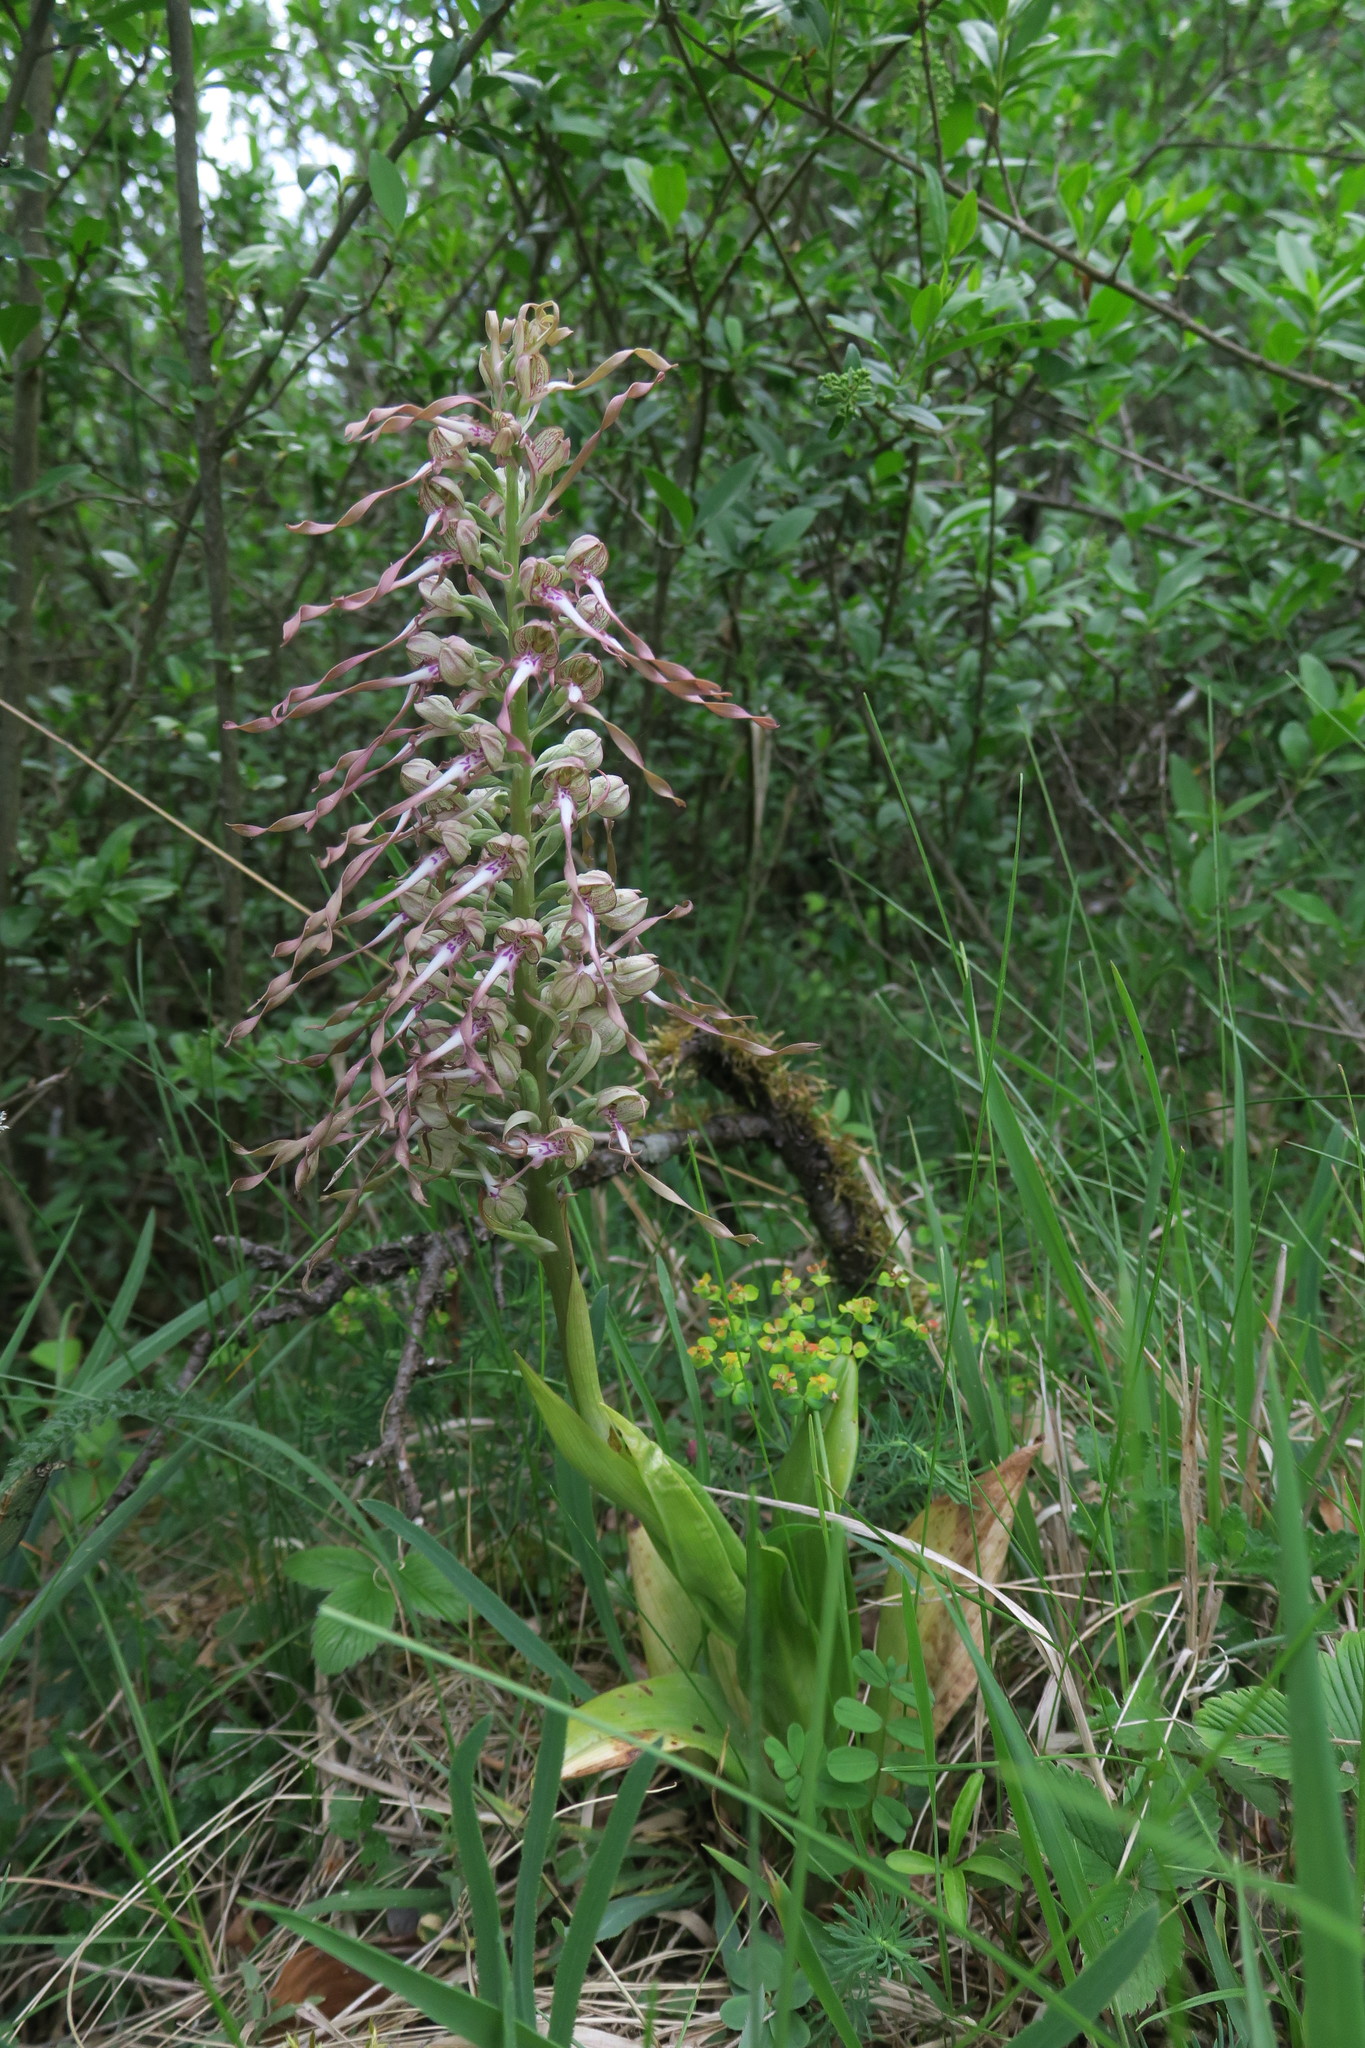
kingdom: Plantae
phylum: Tracheophyta
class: Liliopsida
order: Asparagales
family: Orchidaceae
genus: Himantoglossum
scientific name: Himantoglossum hircinum
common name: Lizard orchid
